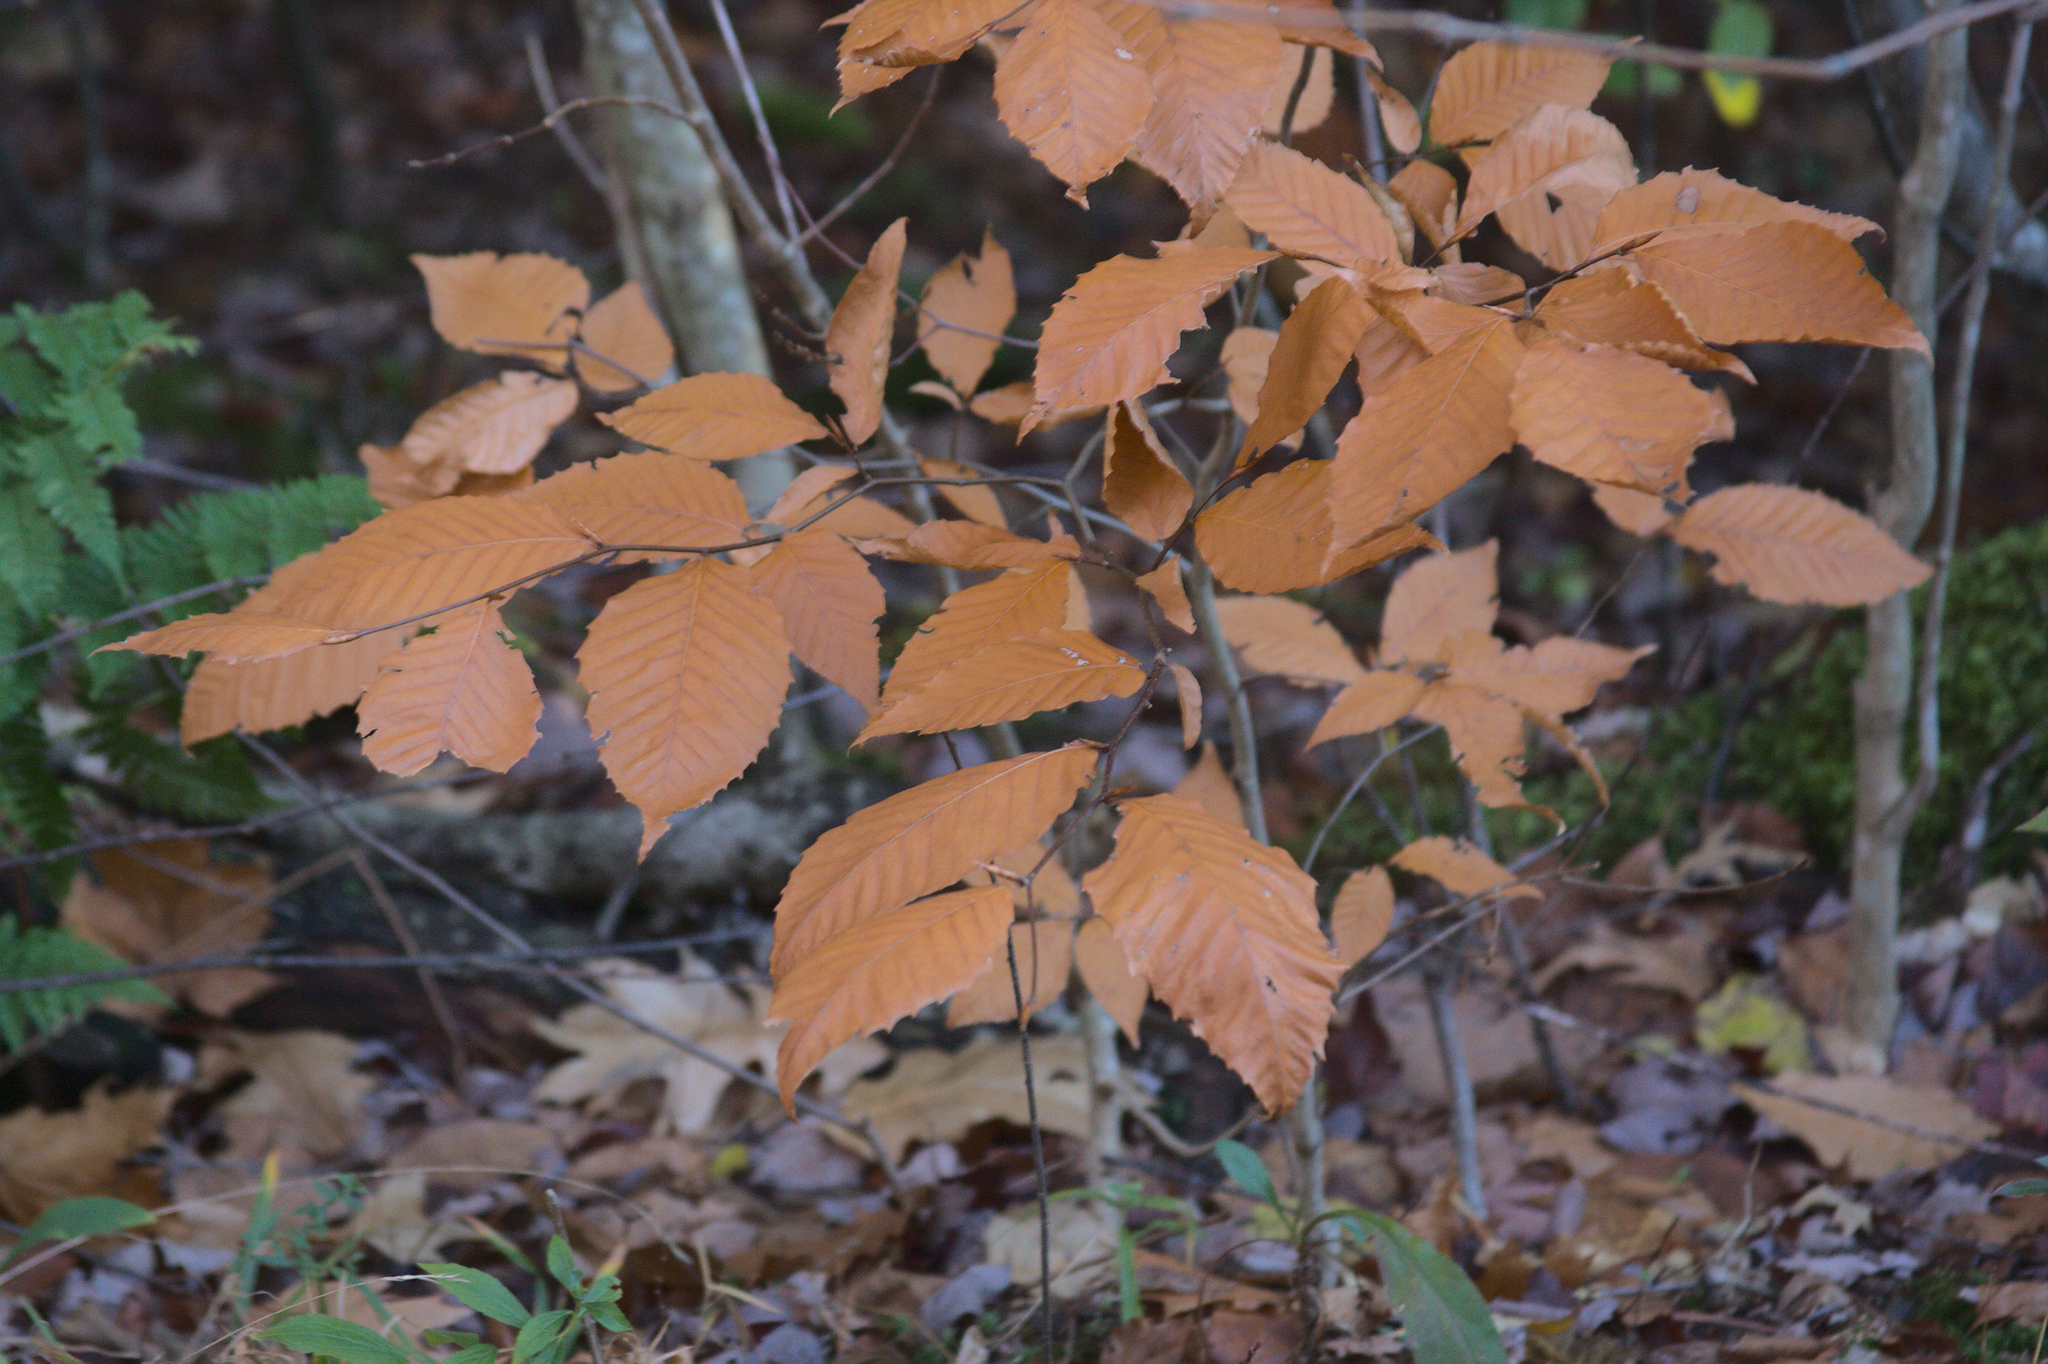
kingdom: Plantae
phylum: Tracheophyta
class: Magnoliopsida
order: Fagales
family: Fagaceae
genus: Fagus
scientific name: Fagus grandifolia
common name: American beech
